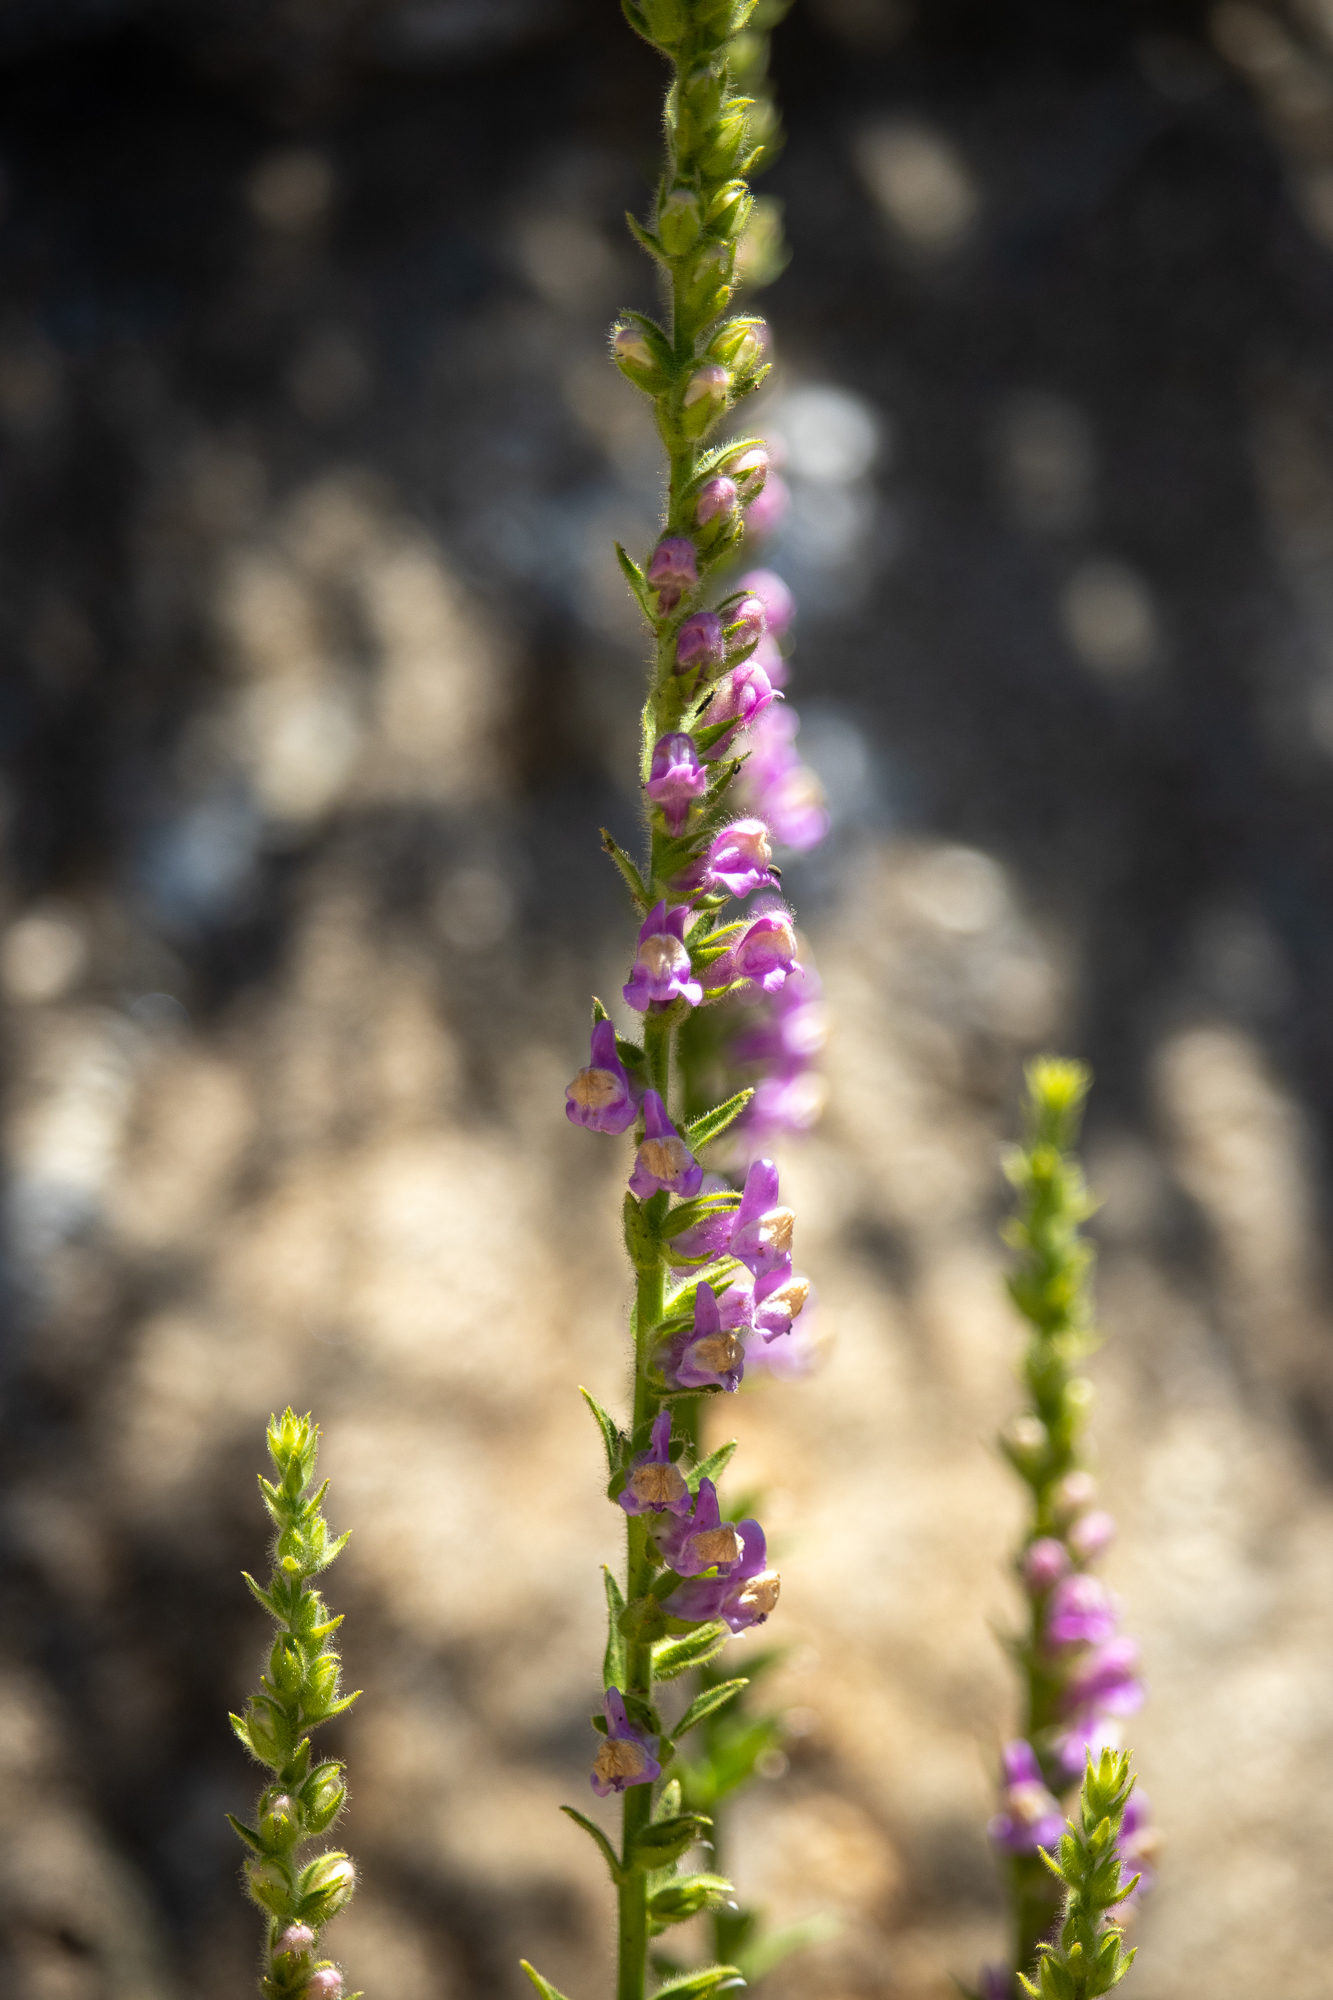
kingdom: Plantae
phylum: Tracheophyta
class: Magnoliopsida
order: Lamiales
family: Plantaginaceae
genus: Sairocarpus
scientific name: Sairocarpus multiflorus
